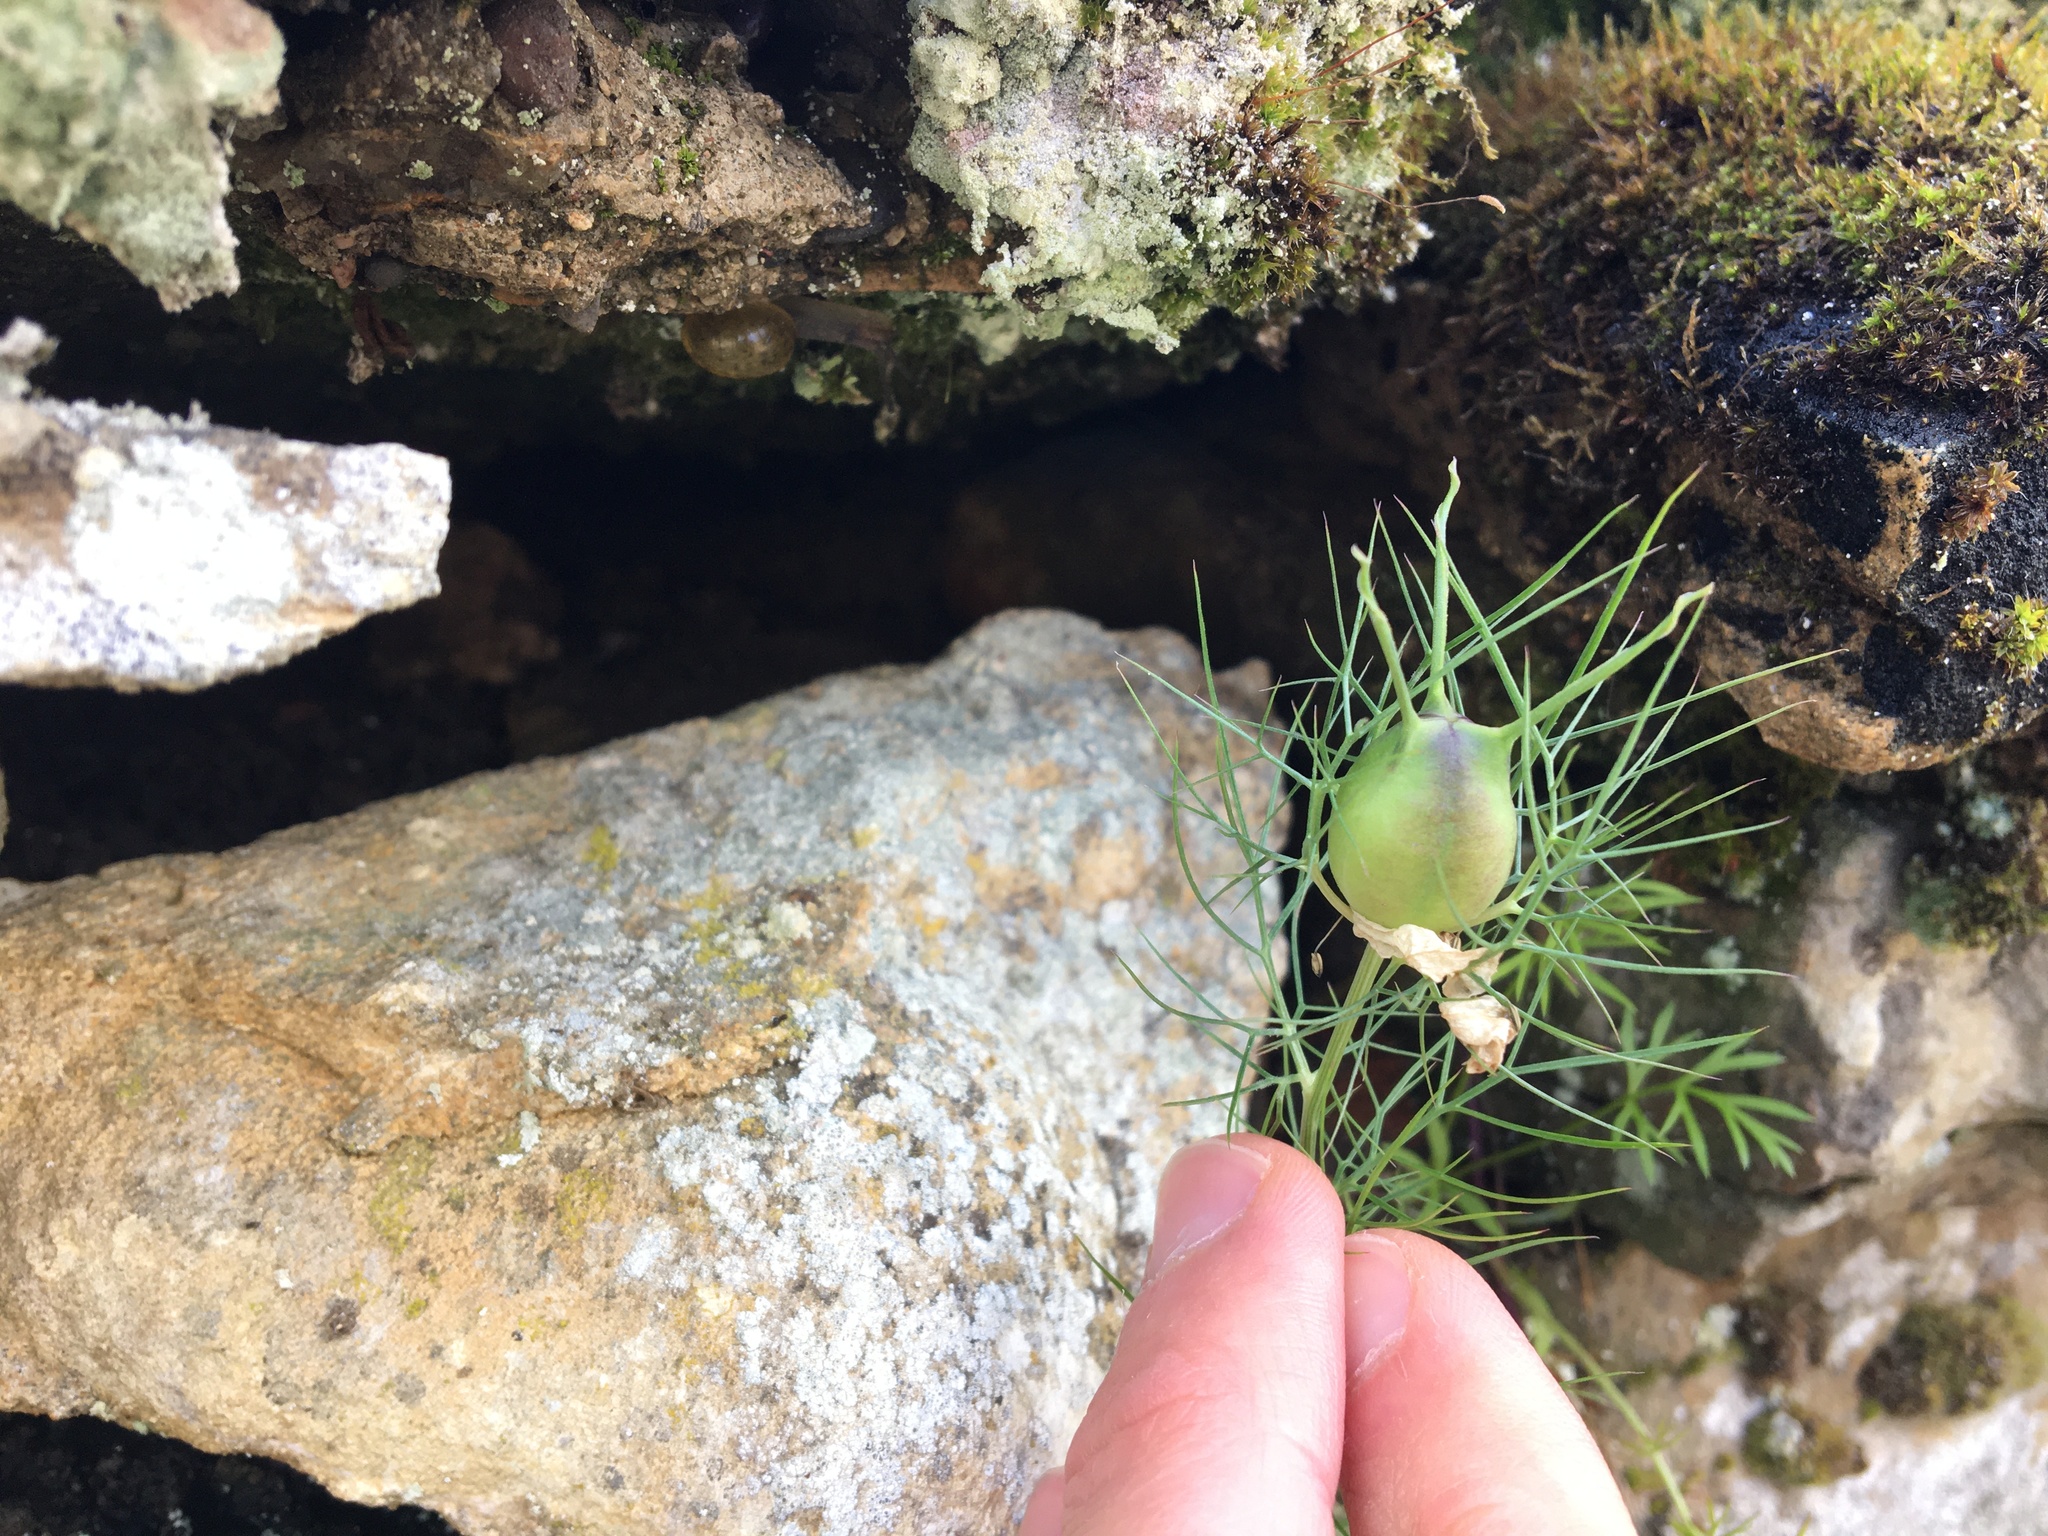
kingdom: Plantae
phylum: Tracheophyta
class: Magnoliopsida
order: Ranunculales
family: Ranunculaceae
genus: Nigella
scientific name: Nigella damascena
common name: Love-in-a-mist
